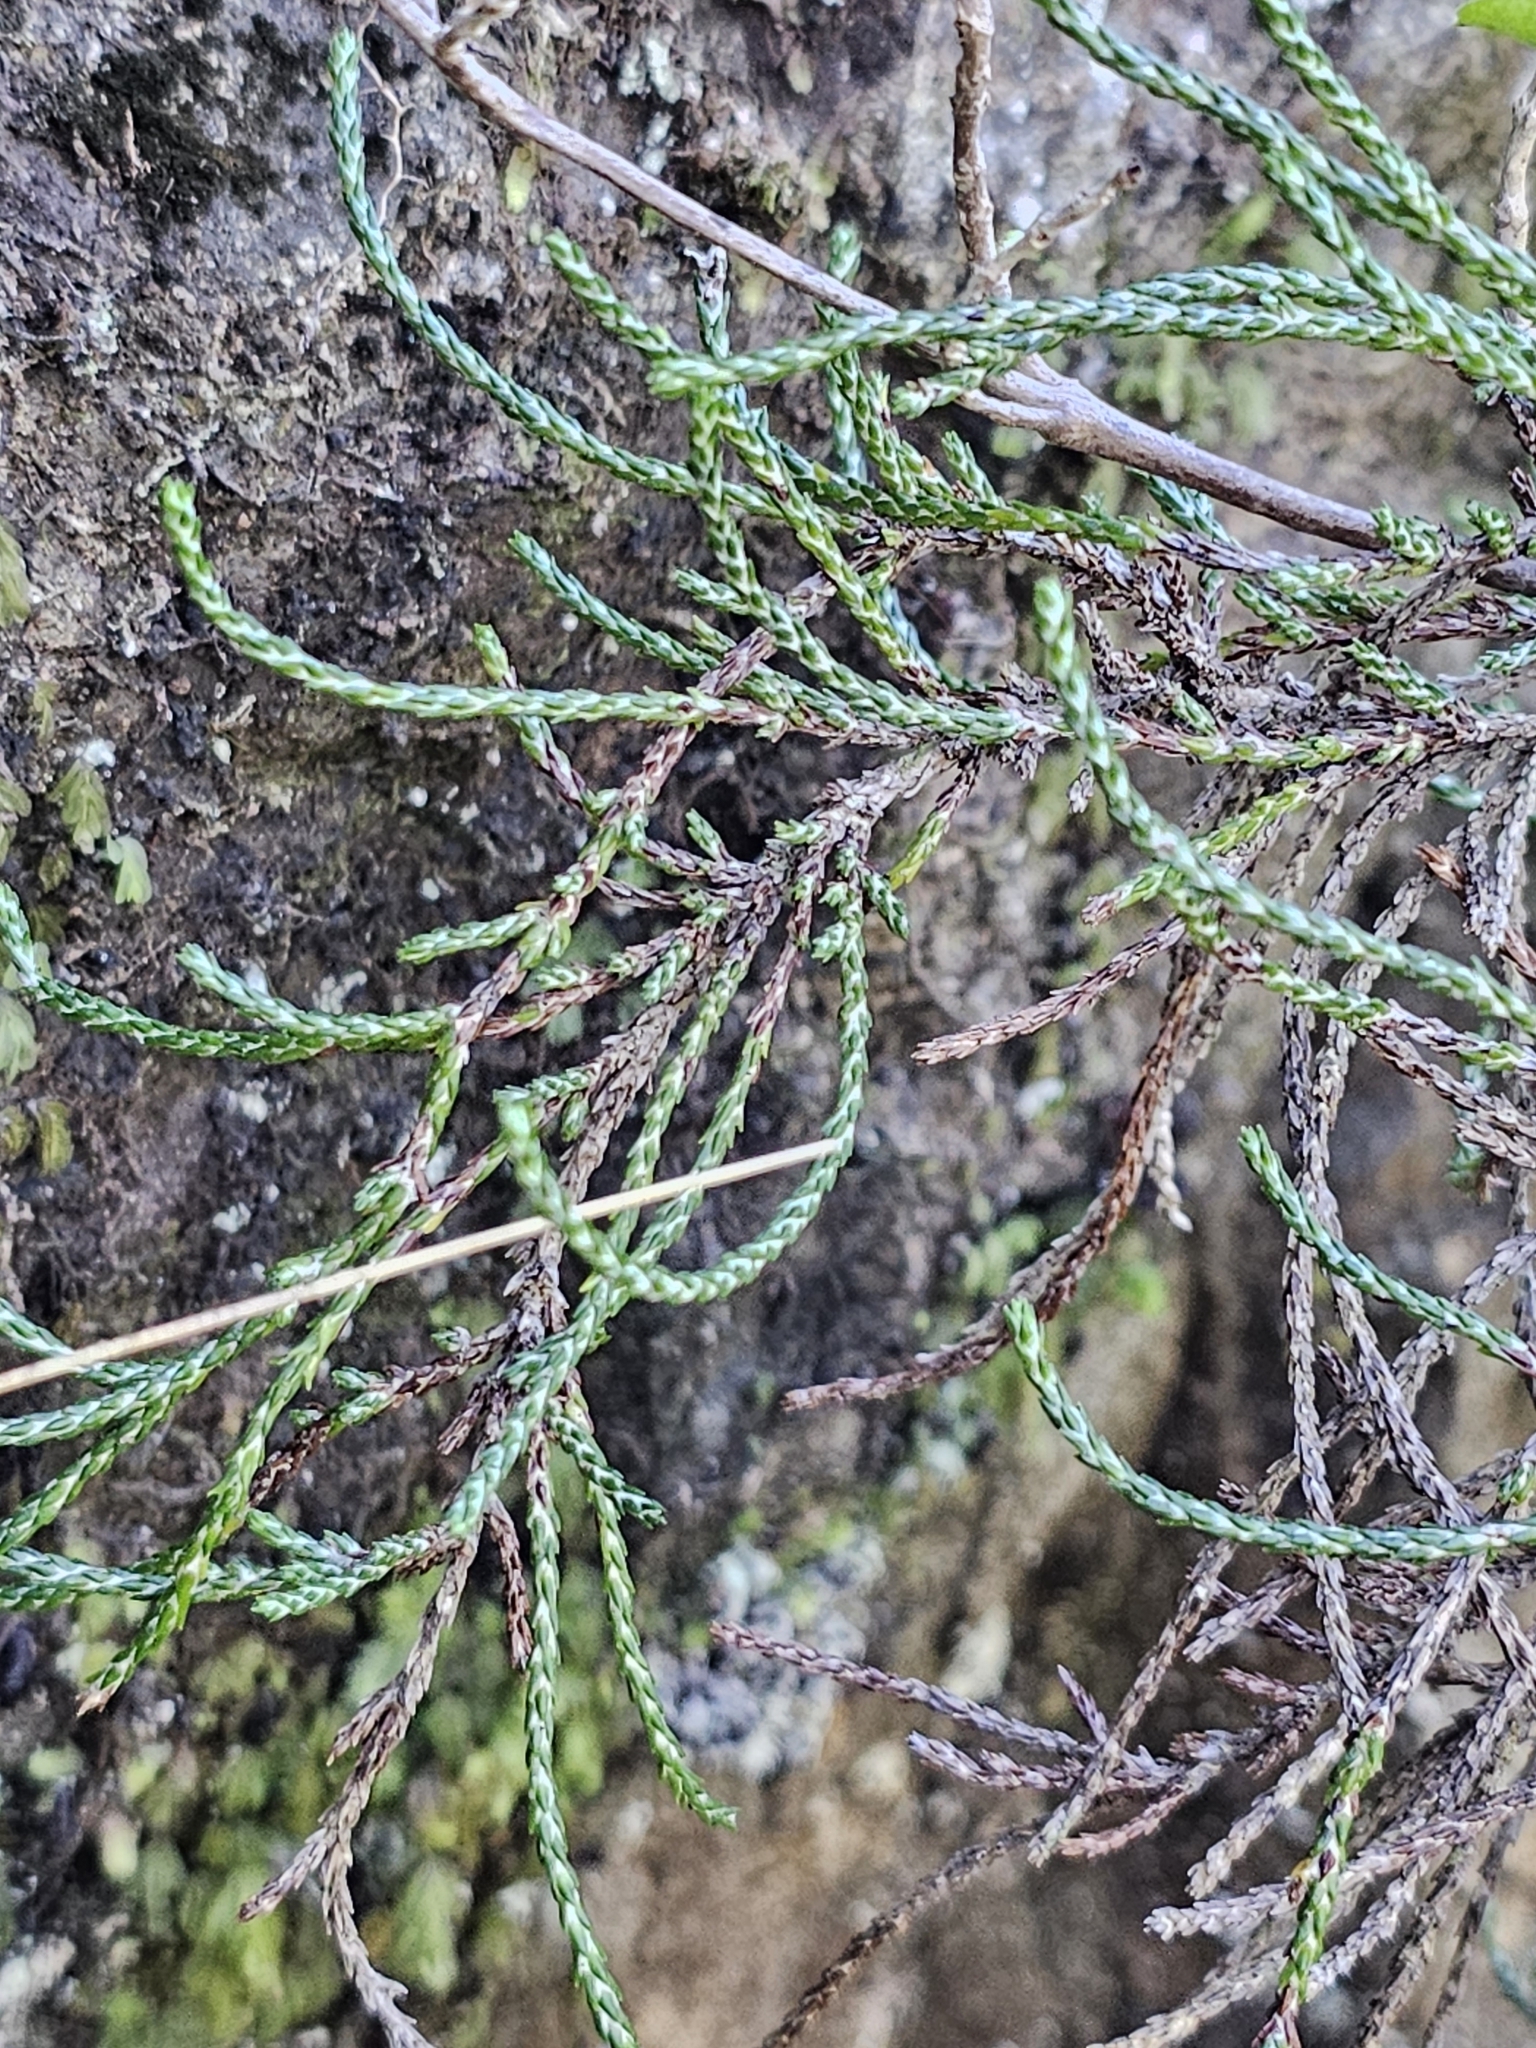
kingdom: Plantae
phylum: Tracheophyta
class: Magnoliopsida
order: Asterales
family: Asteraceae
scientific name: Asteraceae
